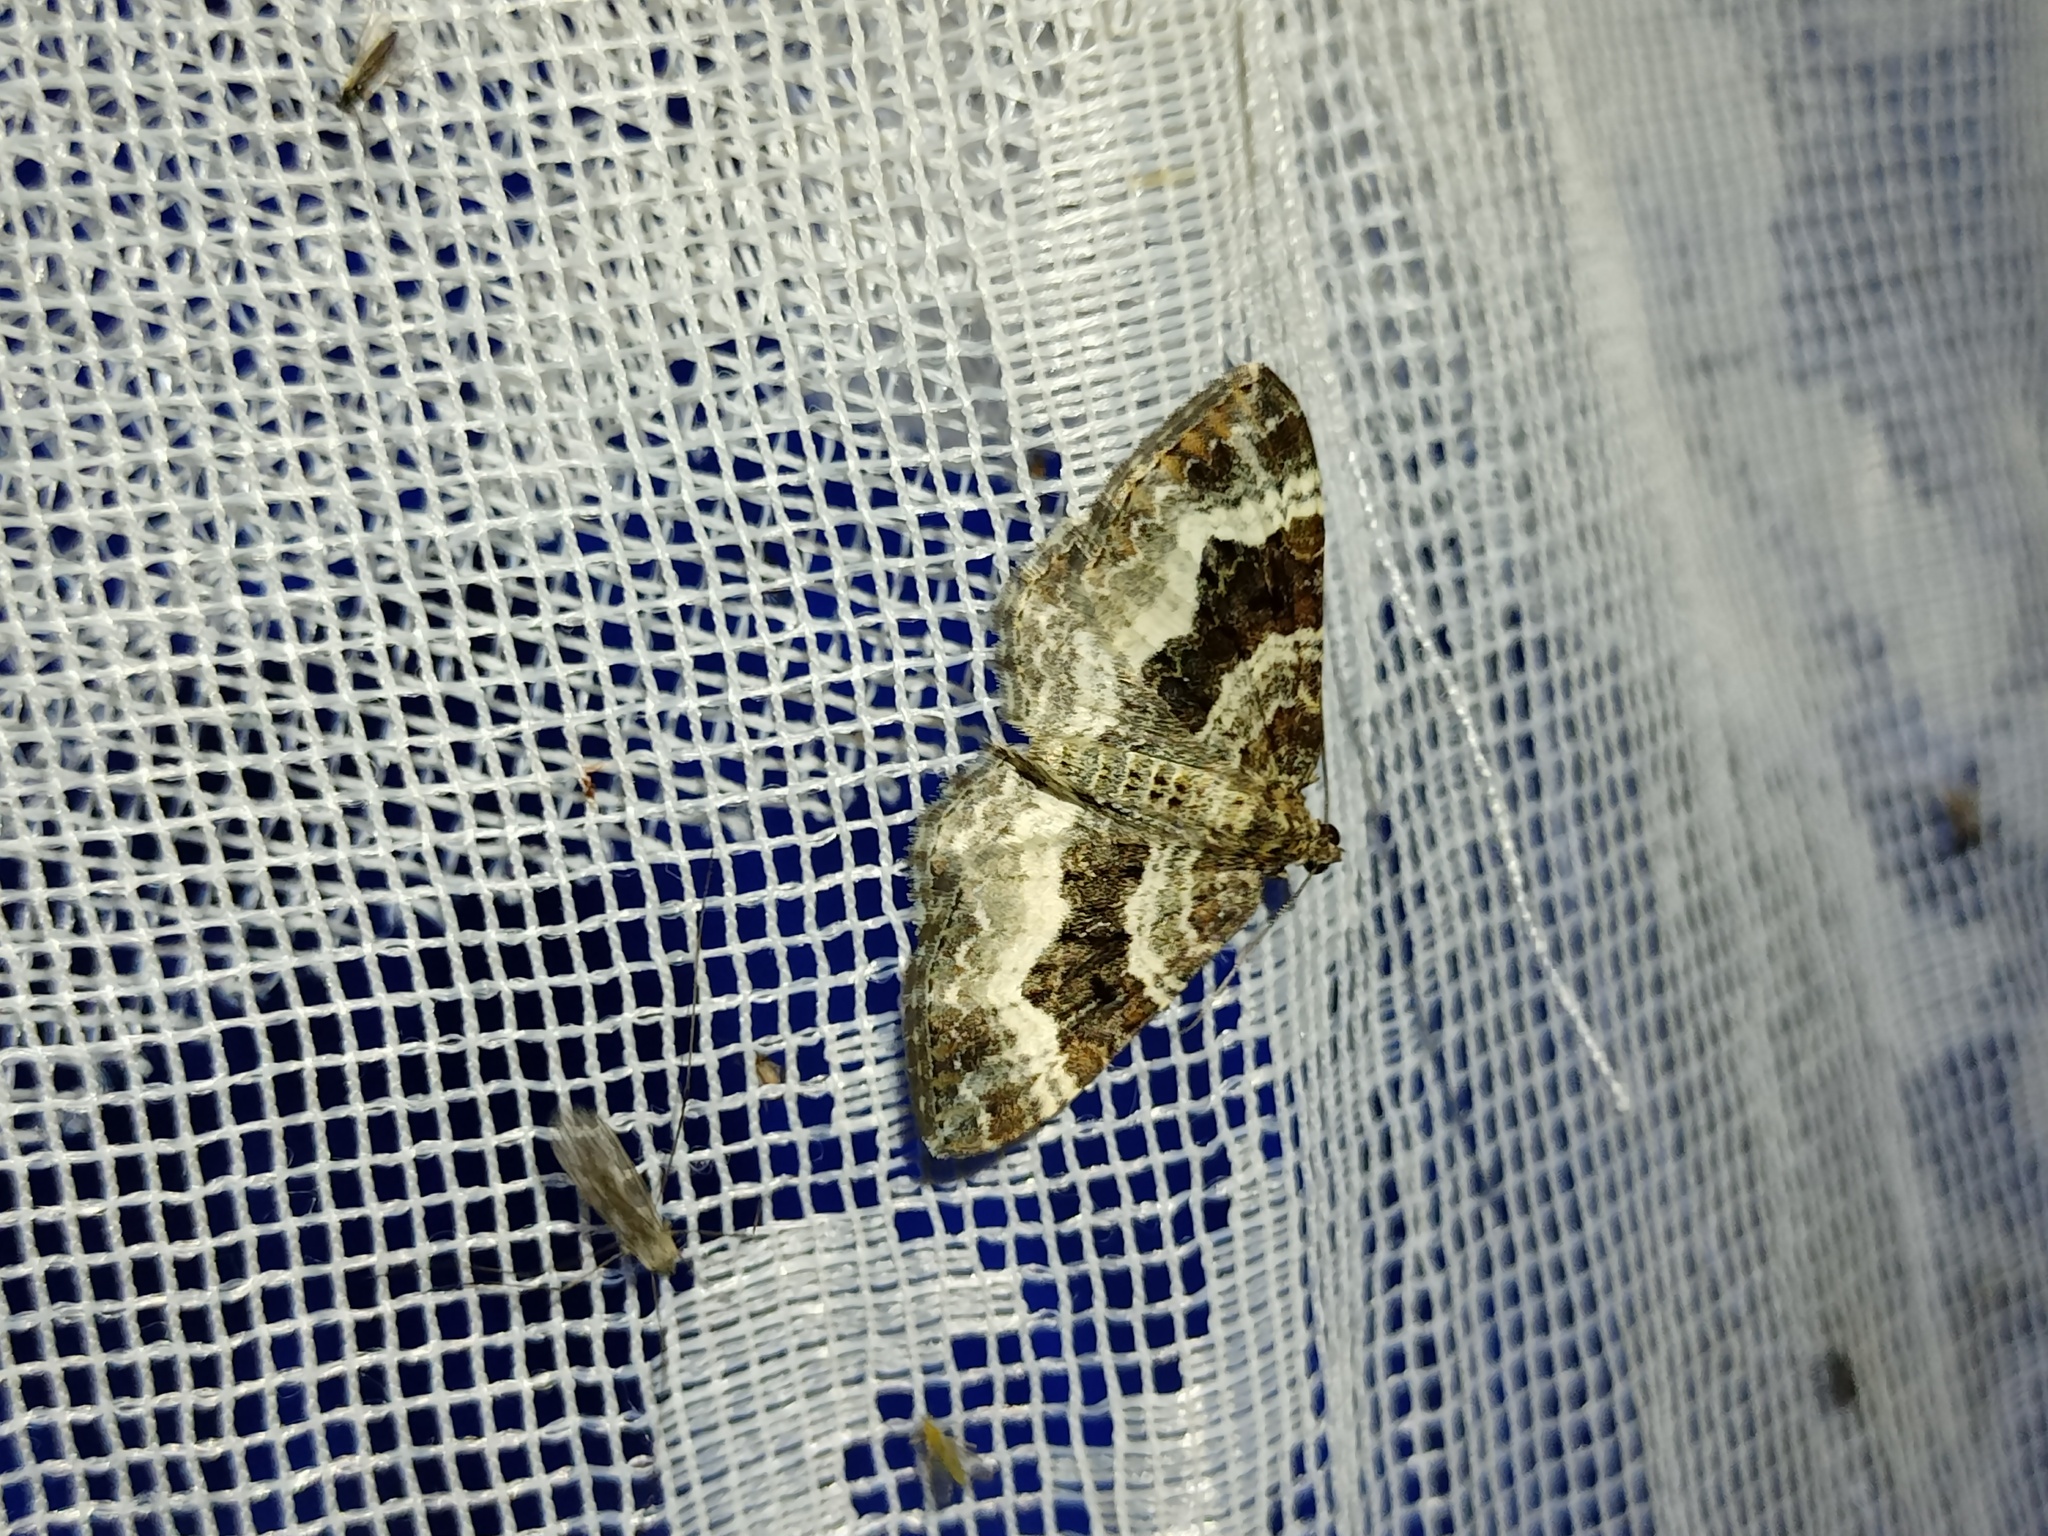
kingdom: Animalia
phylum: Arthropoda
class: Insecta
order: Lepidoptera
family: Geometridae
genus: Epirrhoe
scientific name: Epirrhoe alternata
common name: Common carpet
